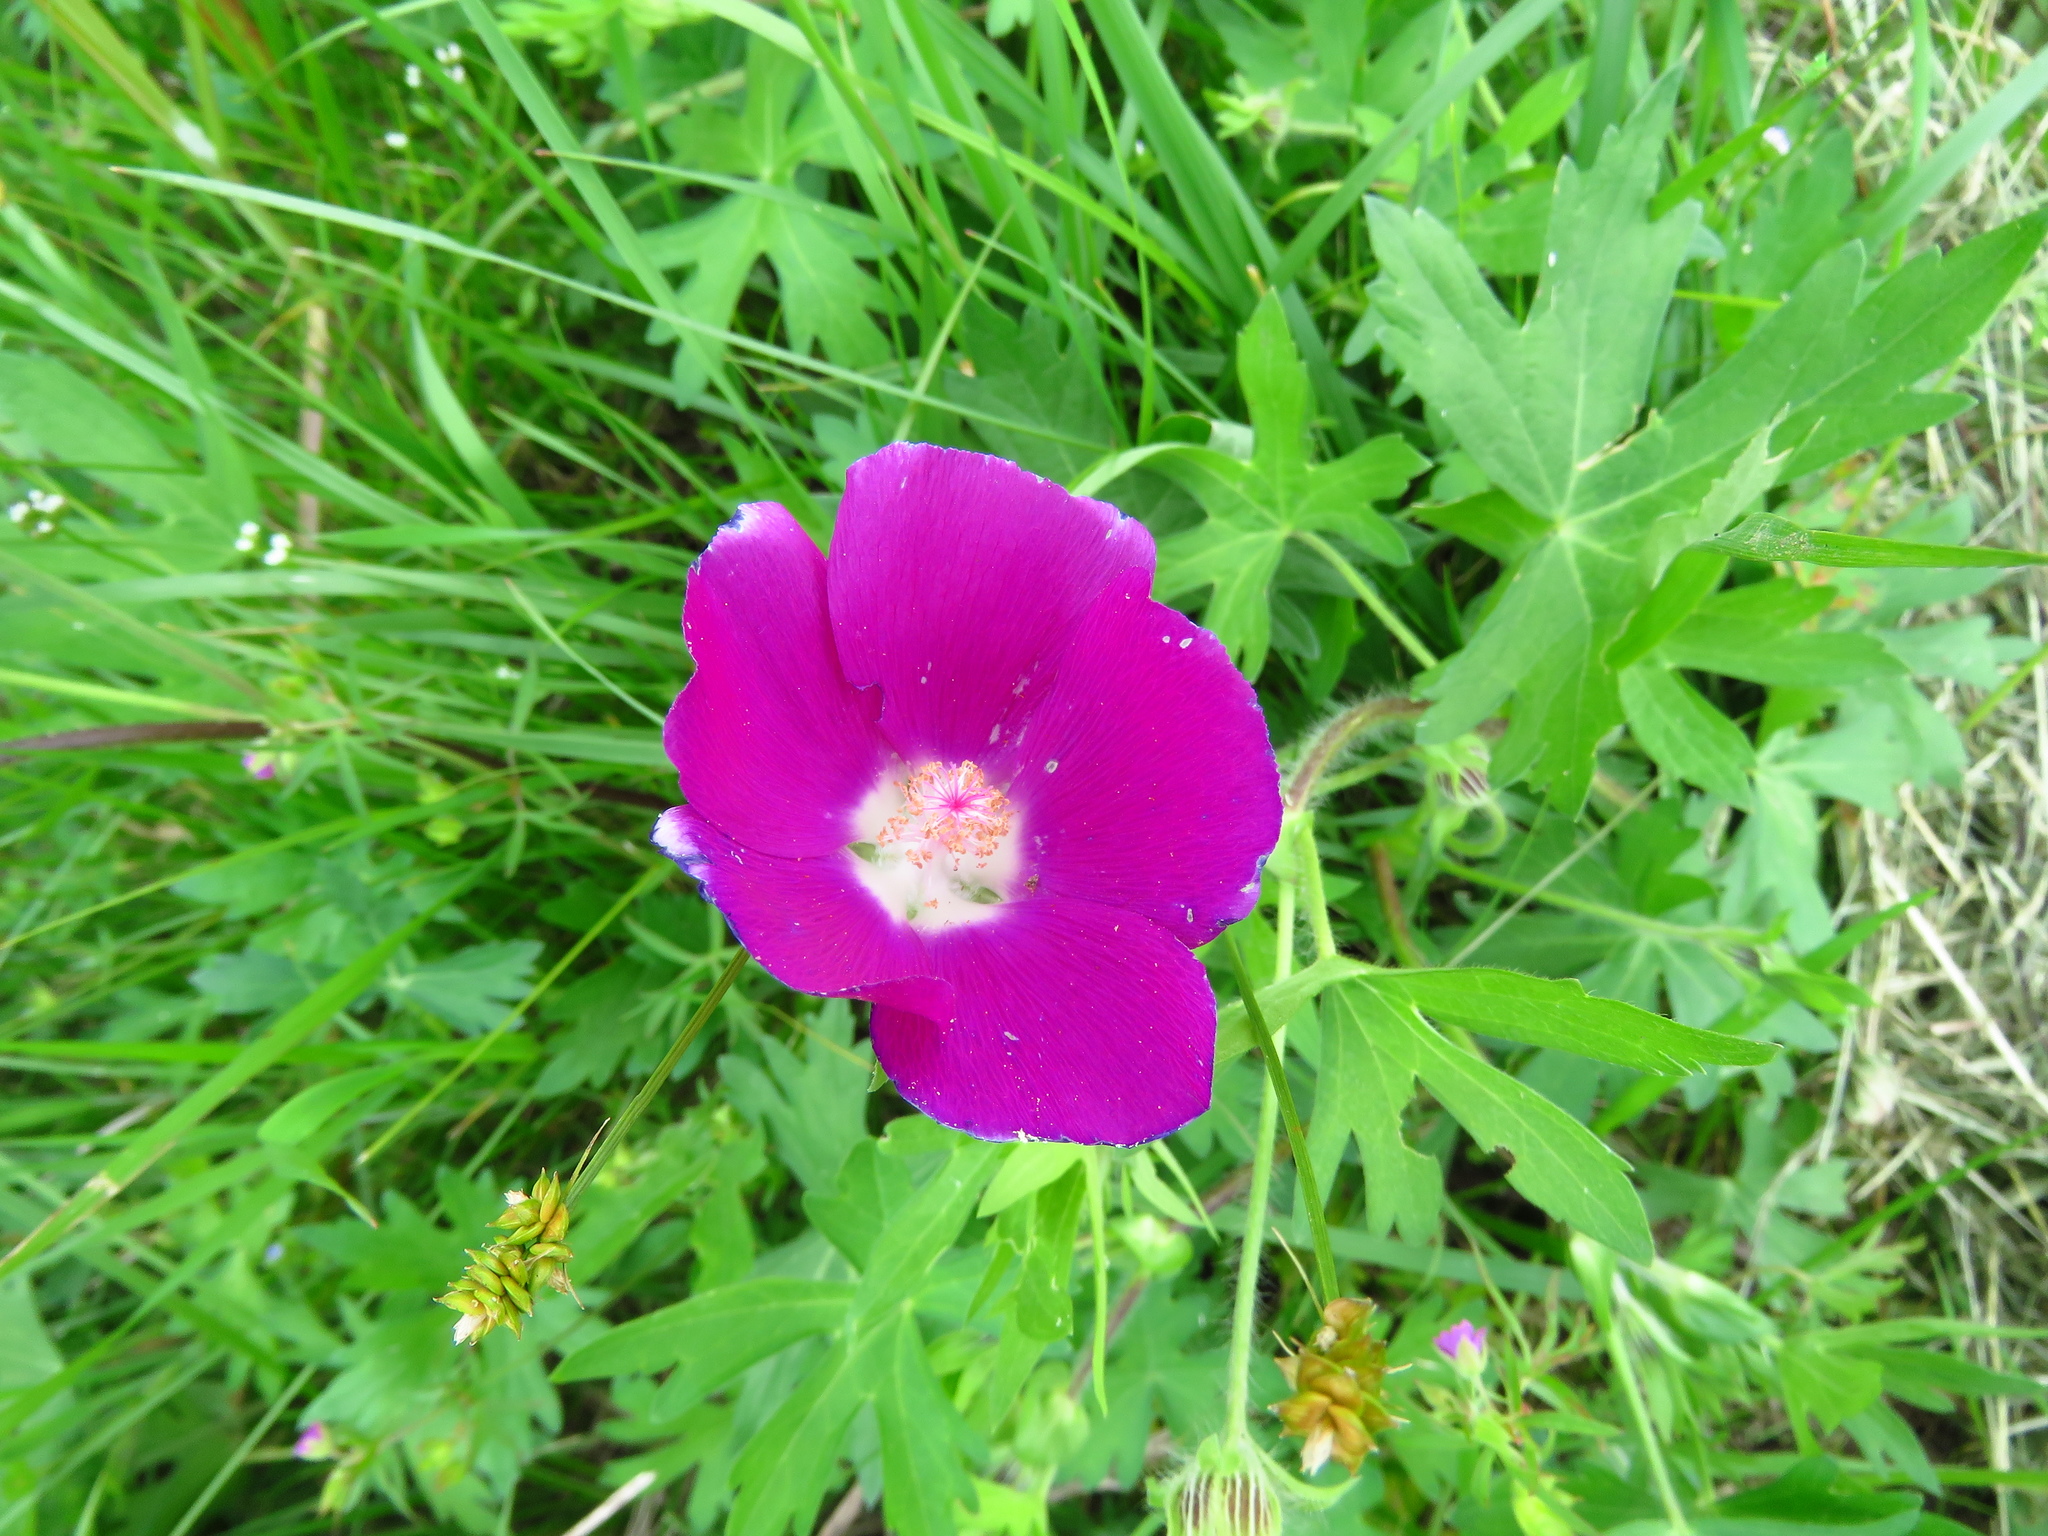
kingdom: Plantae
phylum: Tracheophyta
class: Magnoliopsida
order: Malvales
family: Malvaceae
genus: Callirhoe
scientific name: Callirhoe involucrata
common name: Purple poppy-mallow
